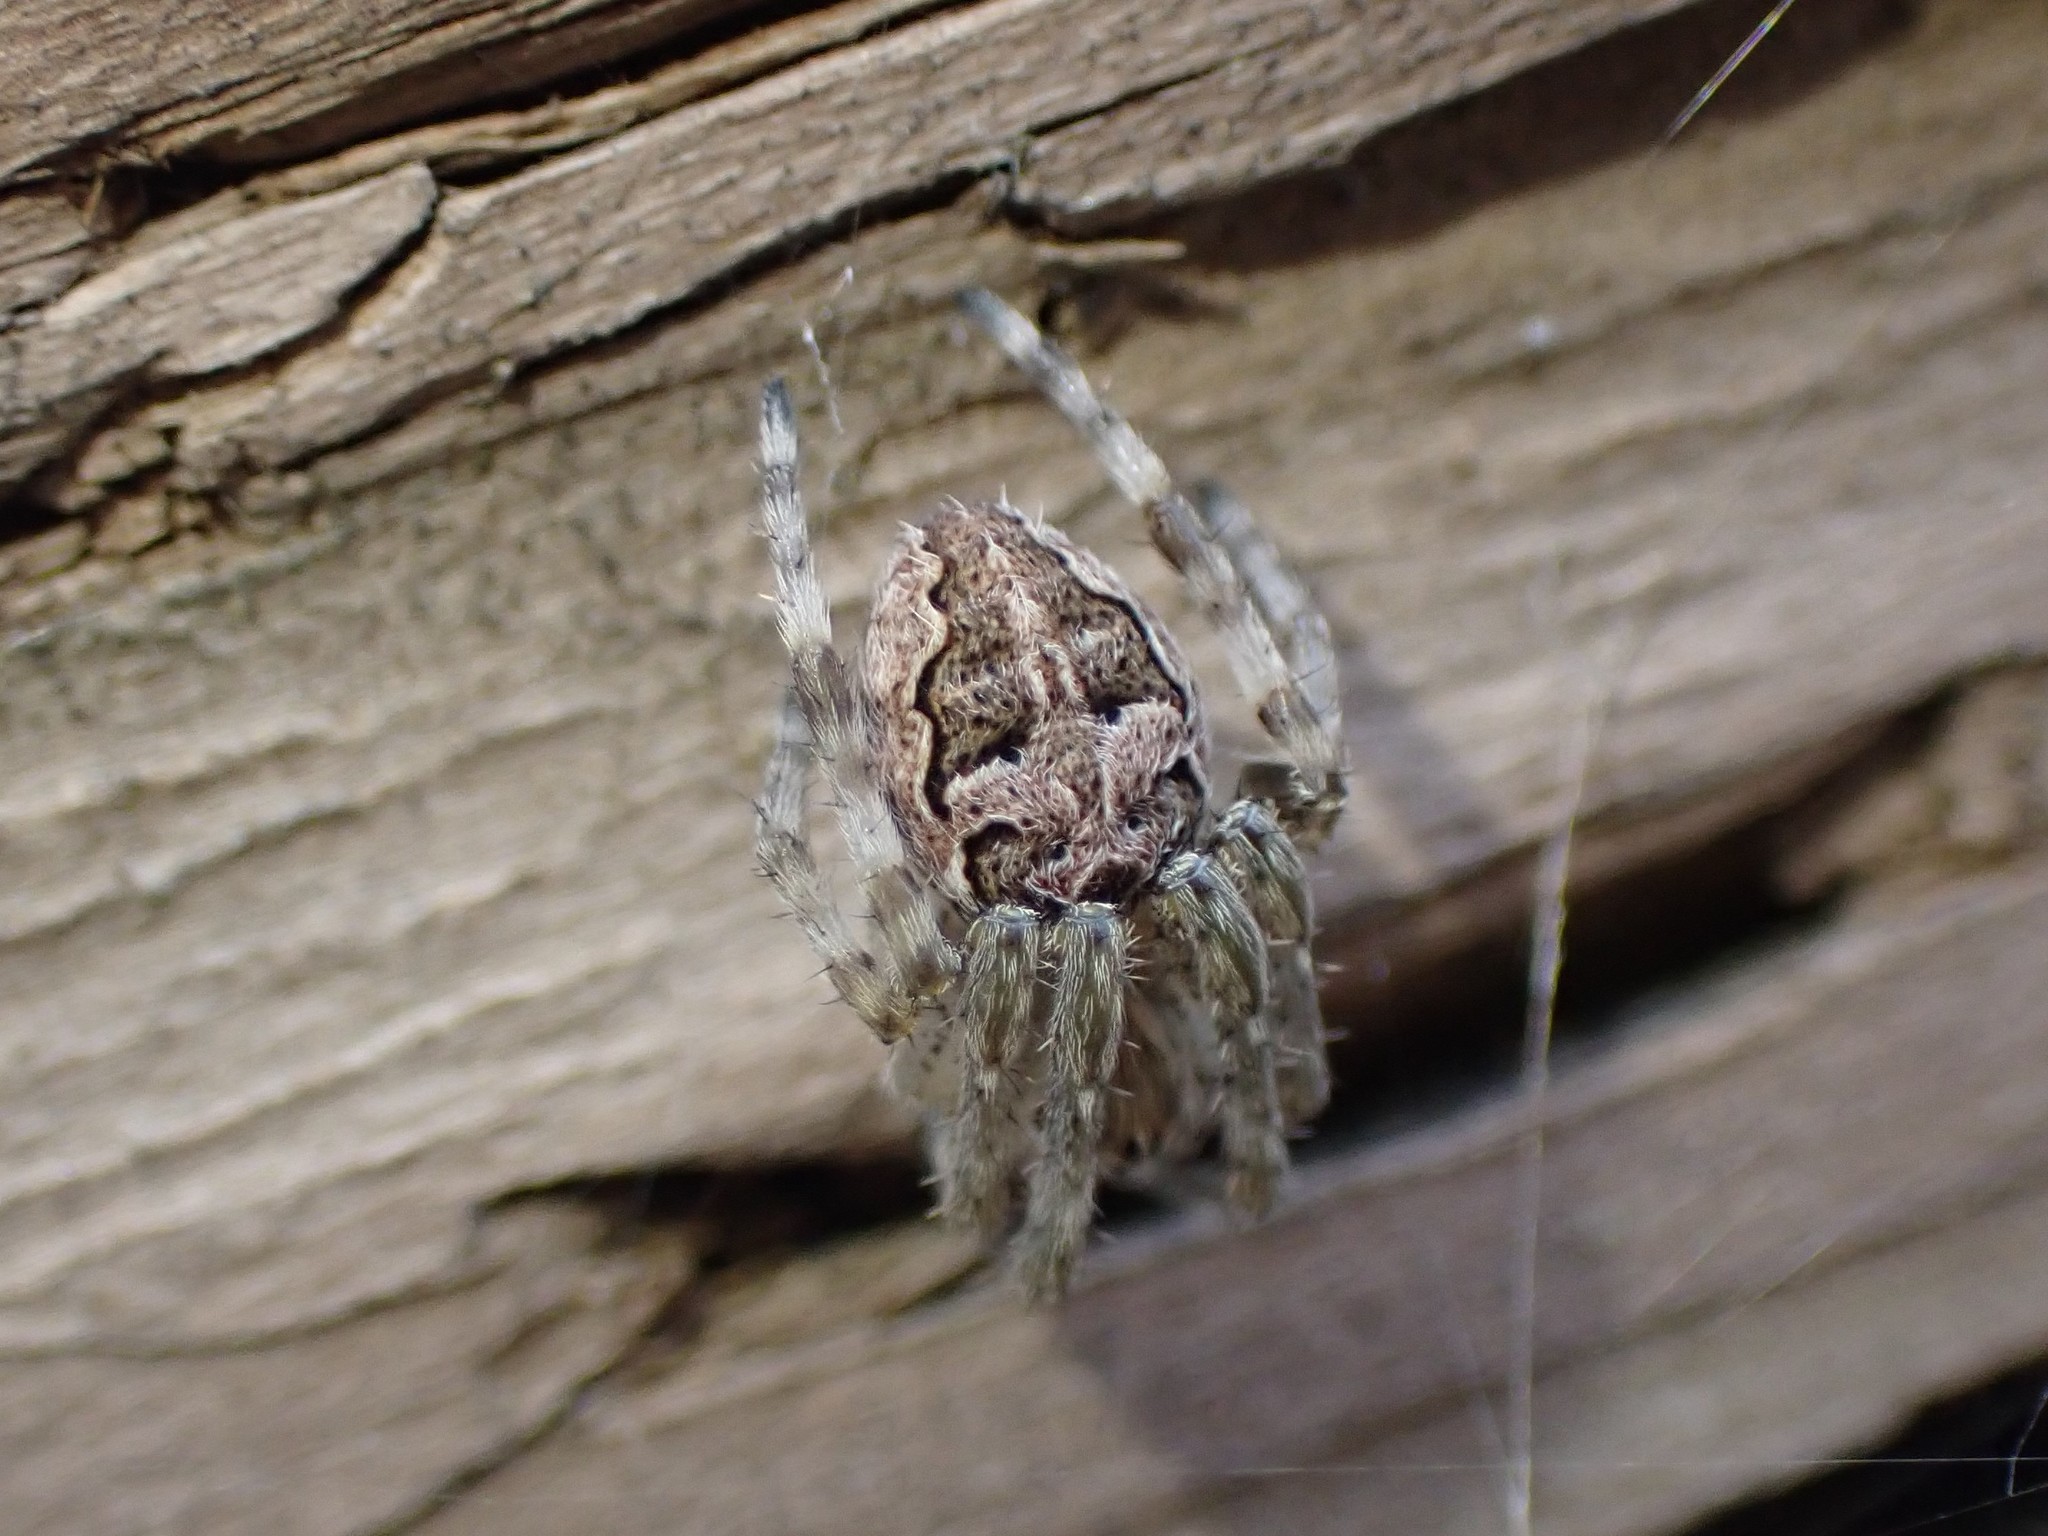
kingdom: Animalia
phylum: Arthropoda
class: Arachnida
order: Araneae
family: Araneidae
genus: Larinioides
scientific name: Larinioides sclopetarius
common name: Bridge orbweaver
